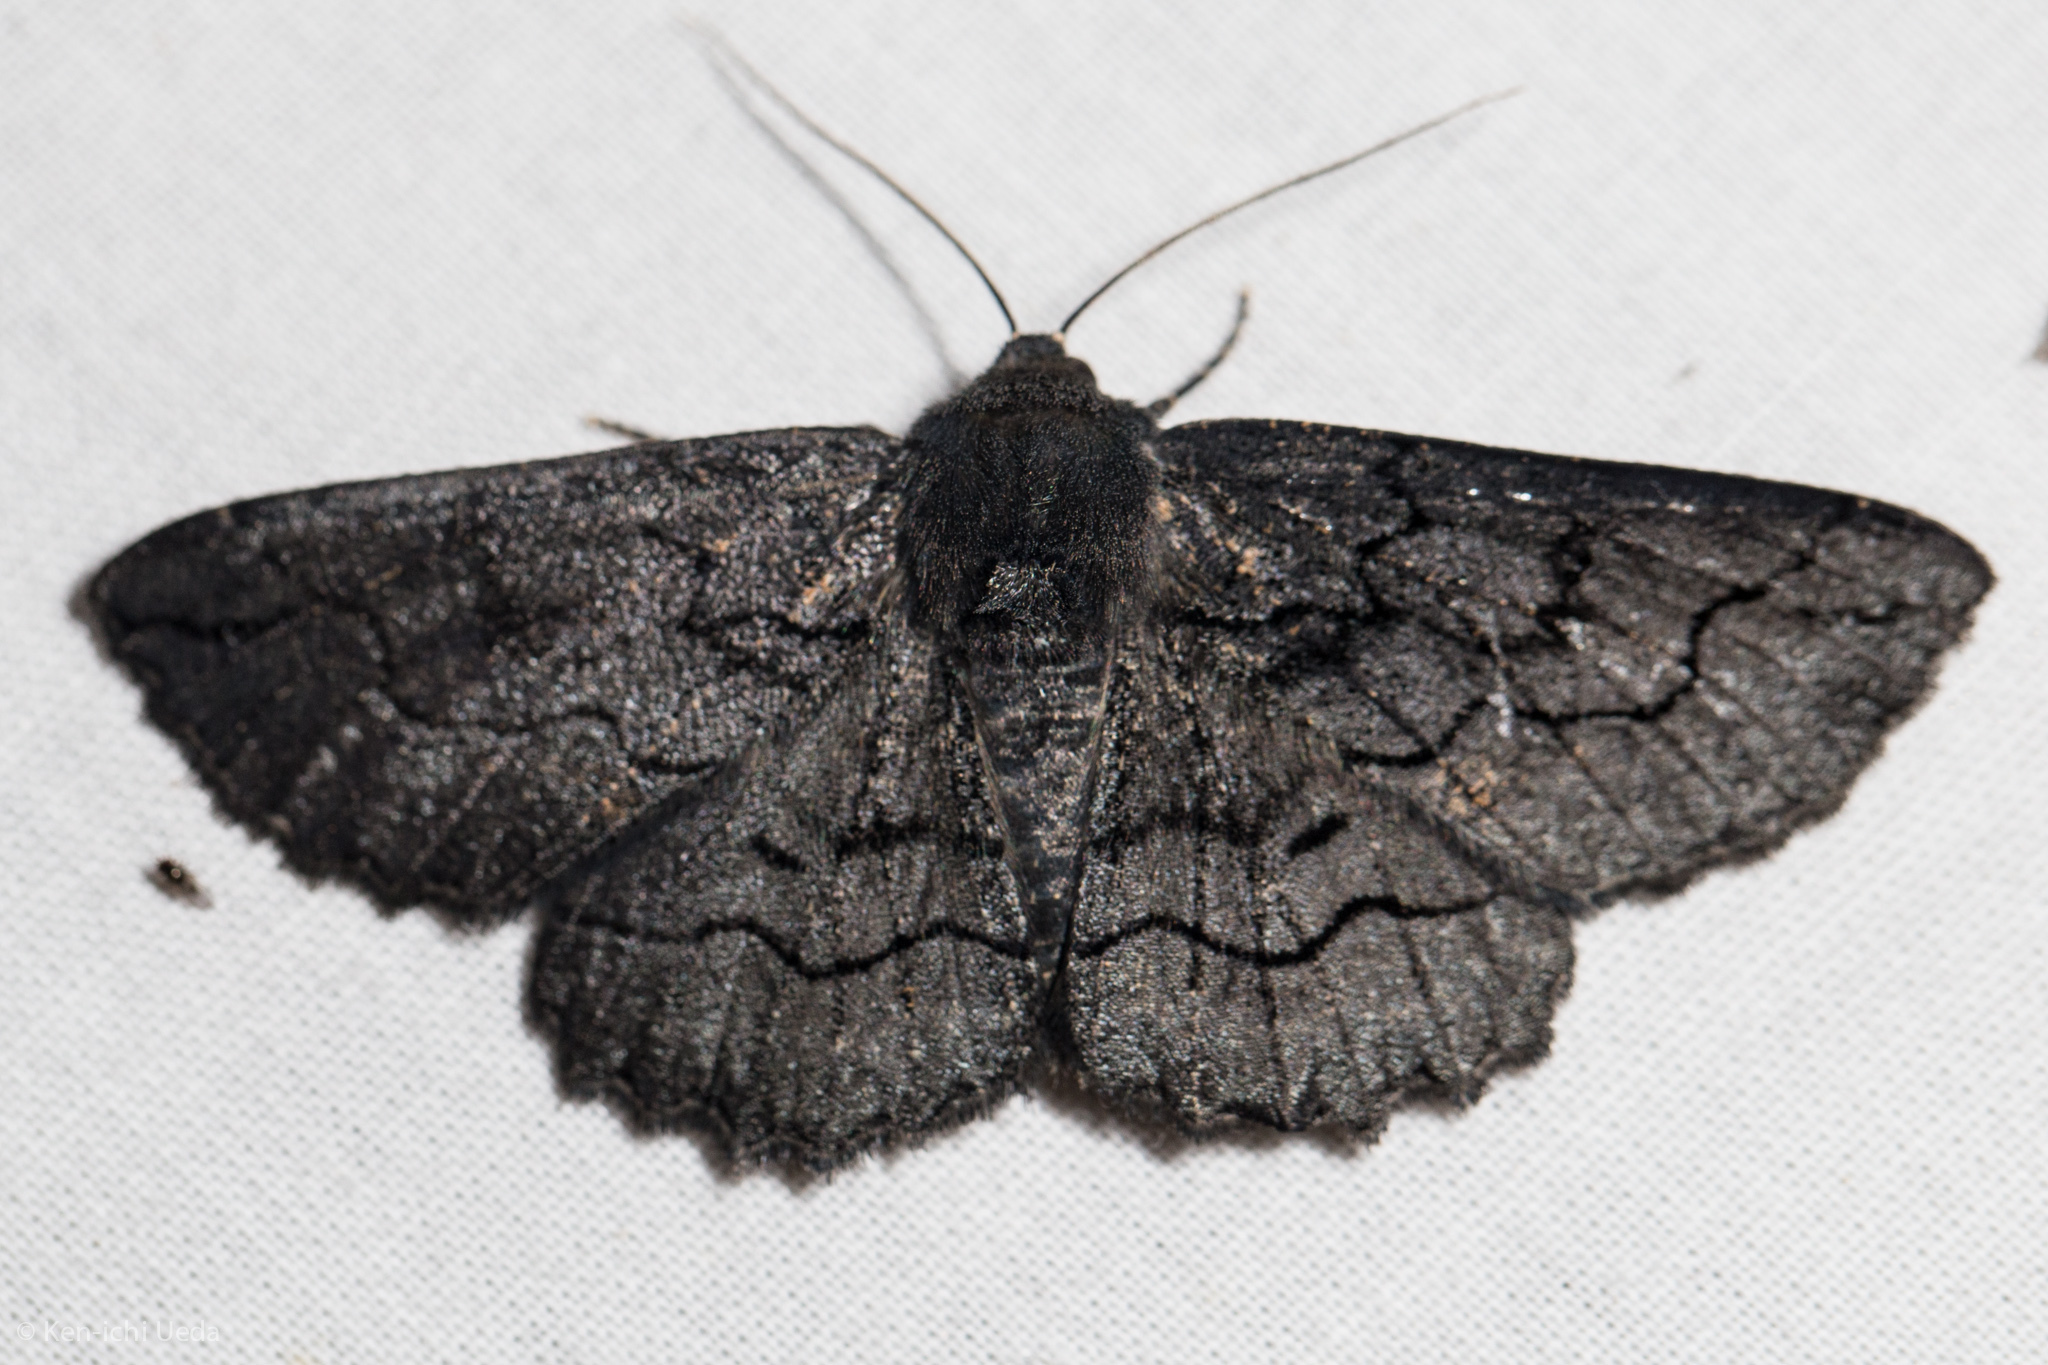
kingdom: Animalia
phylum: Arthropoda
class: Insecta
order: Lepidoptera
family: Geometridae
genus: Melanodes
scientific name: Melanodes anthracitaria
